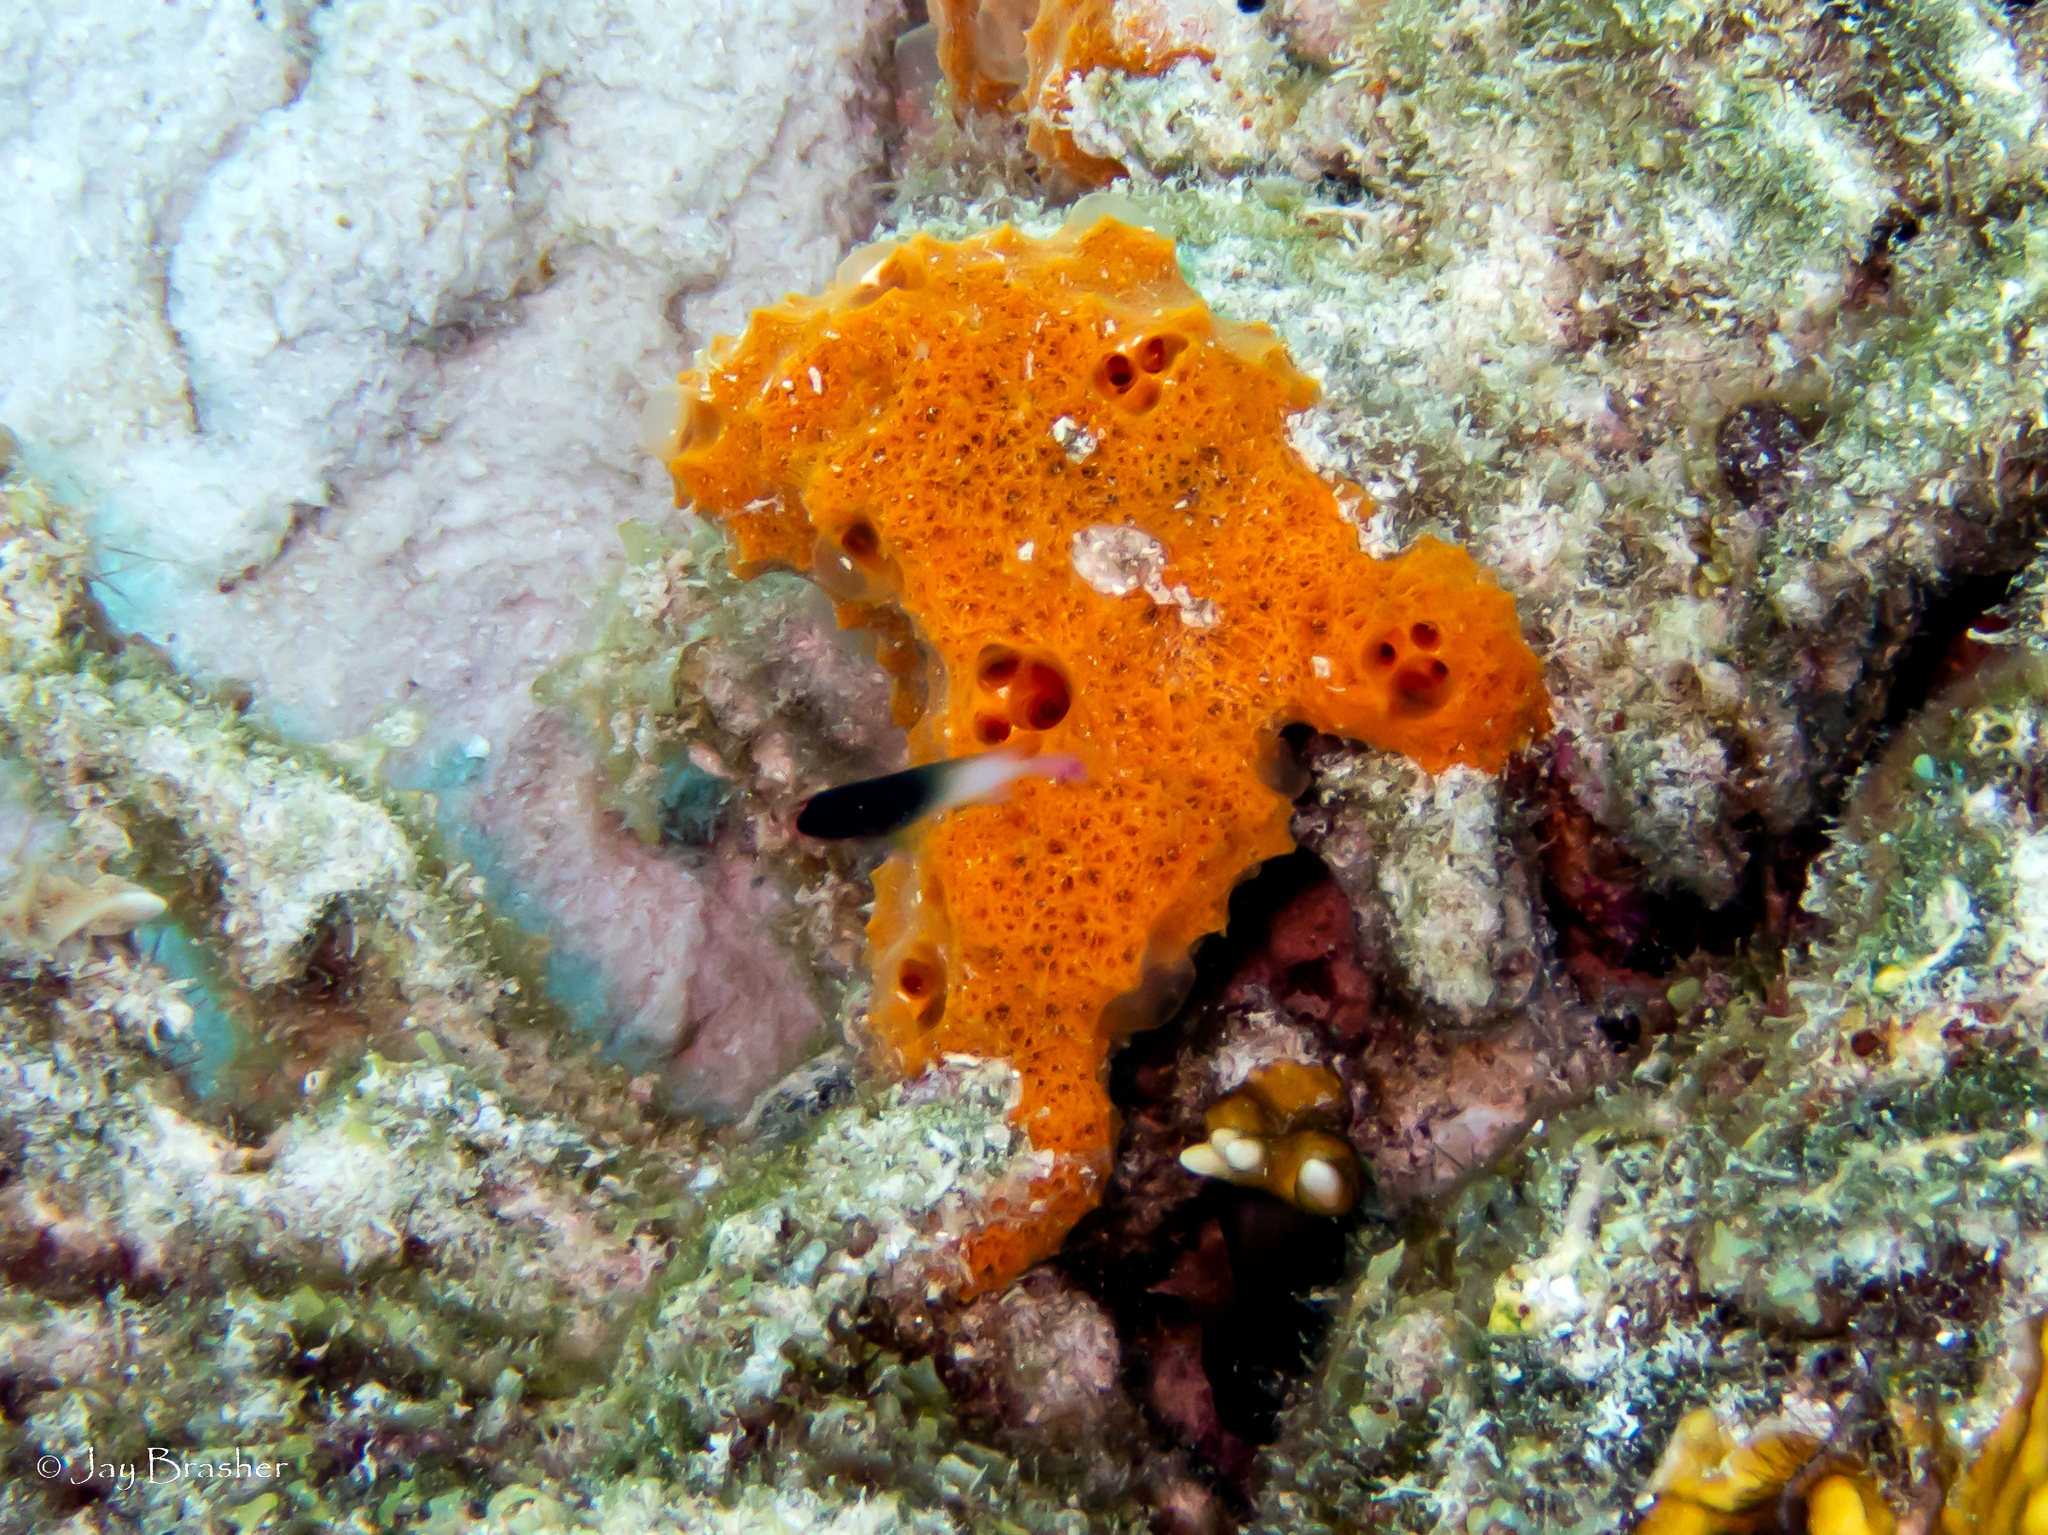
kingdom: Animalia
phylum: Porifera
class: Demospongiae
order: Scopalinida
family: Scopalinidae
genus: Scopalina
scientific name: Scopalina ruetzleri
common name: Orange lumpy encrusting sponge
